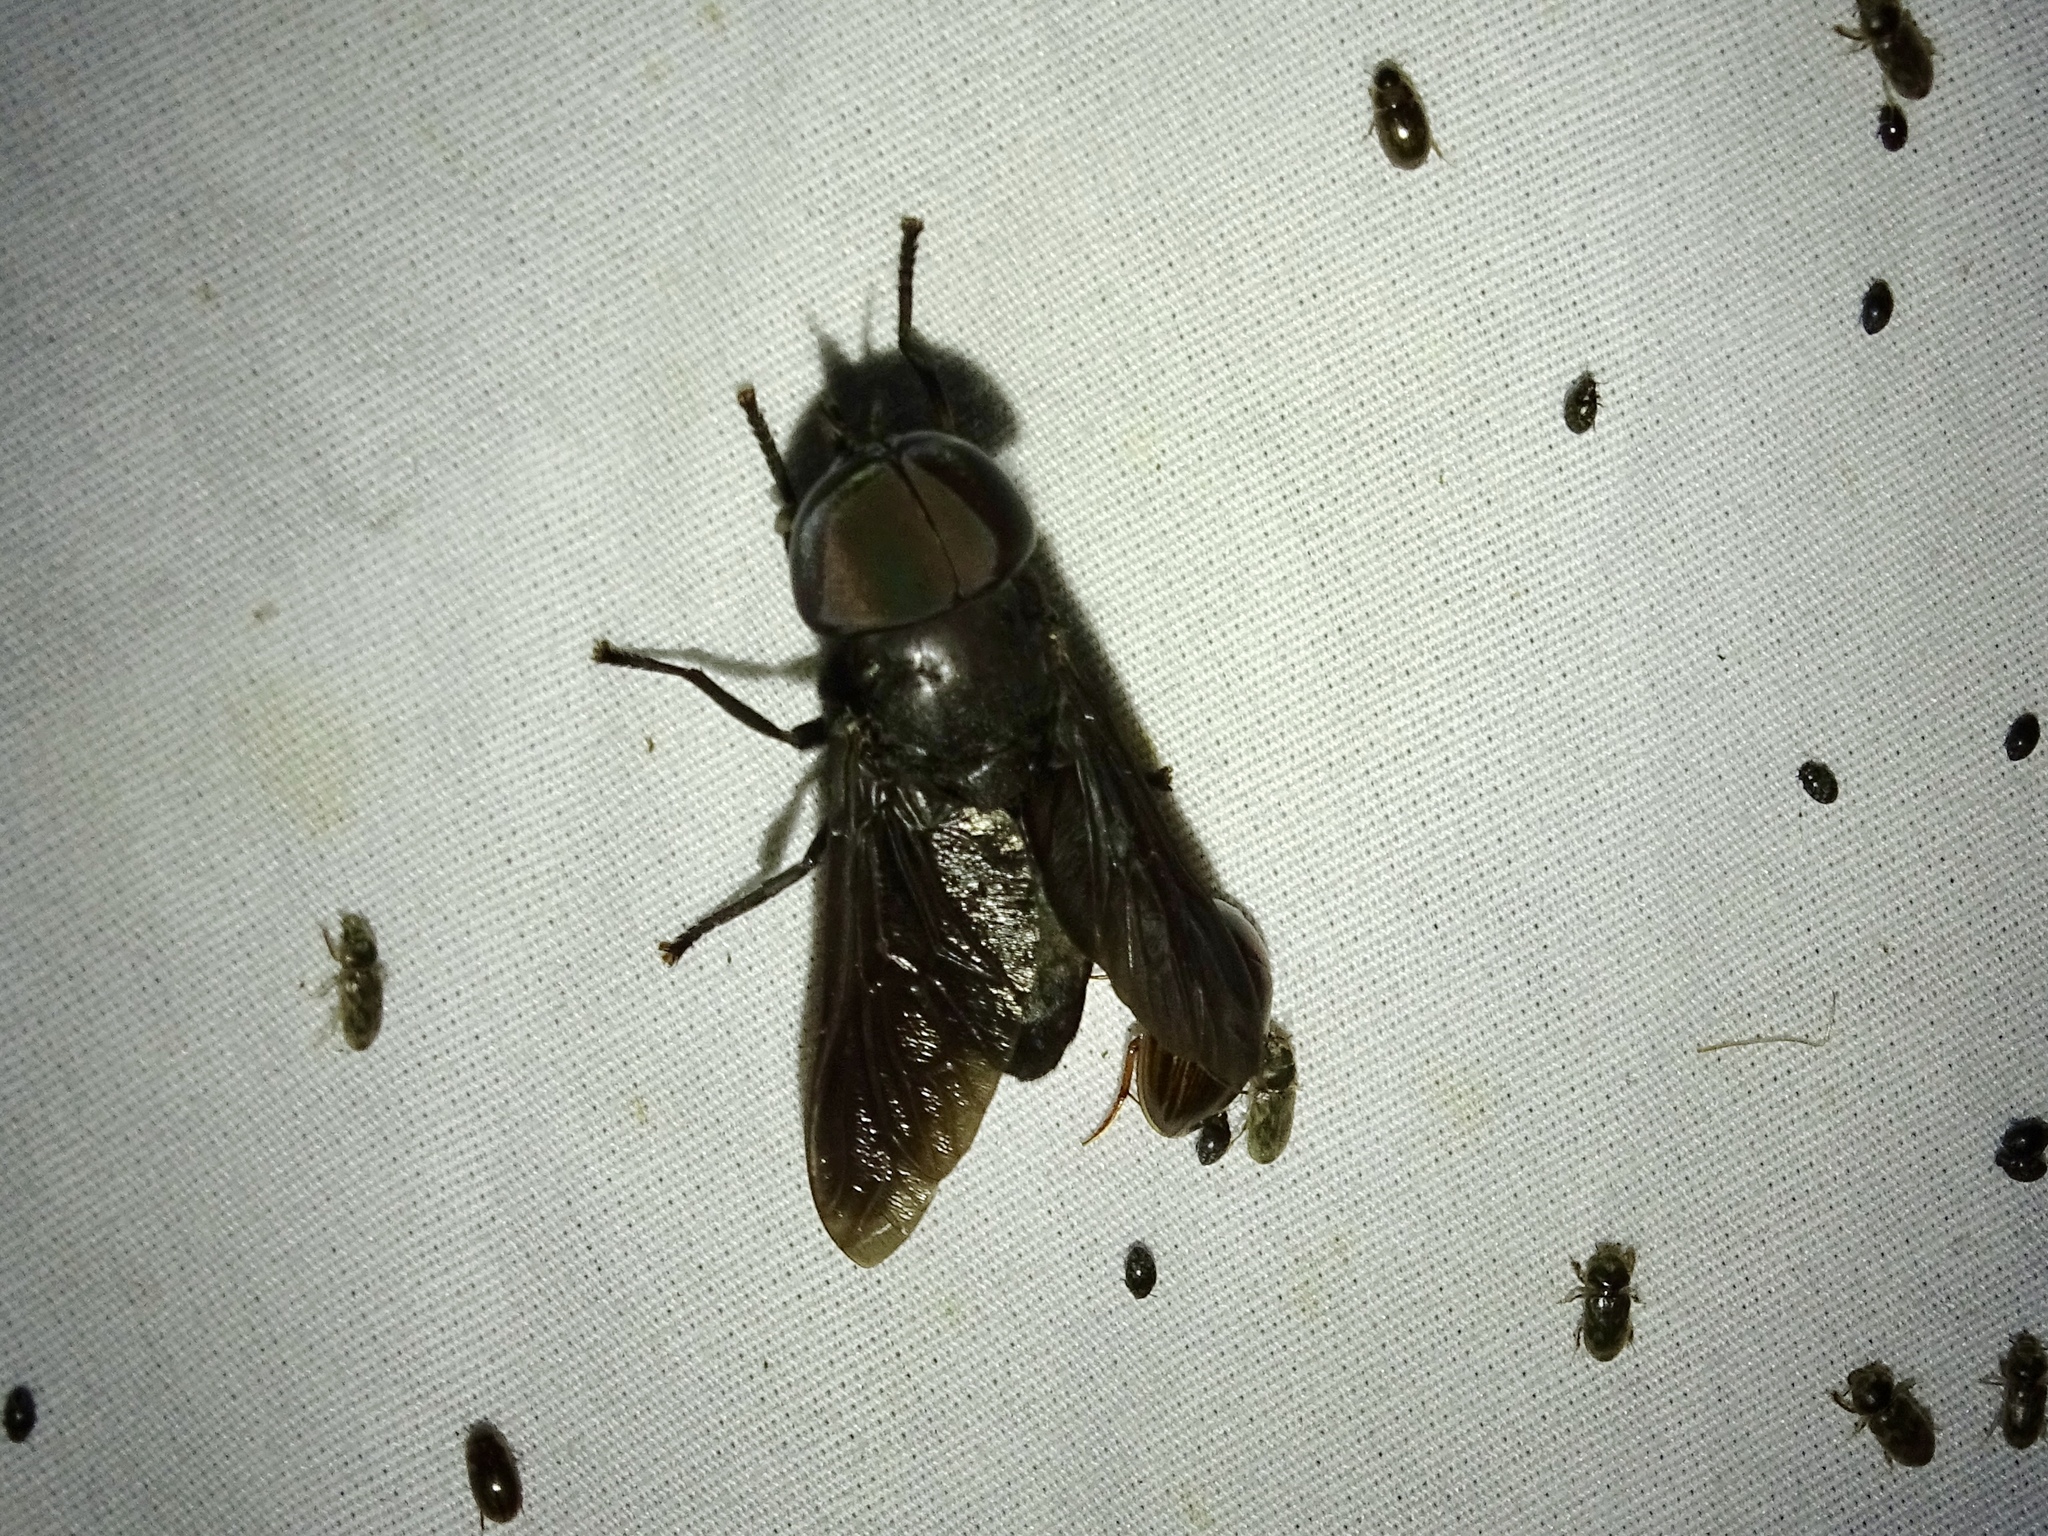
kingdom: Animalia
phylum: Arthropoda
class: Insecta
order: Diptera
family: Tabanidae
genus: Tabanus
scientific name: Tabanus atratus
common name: Black horse fly
